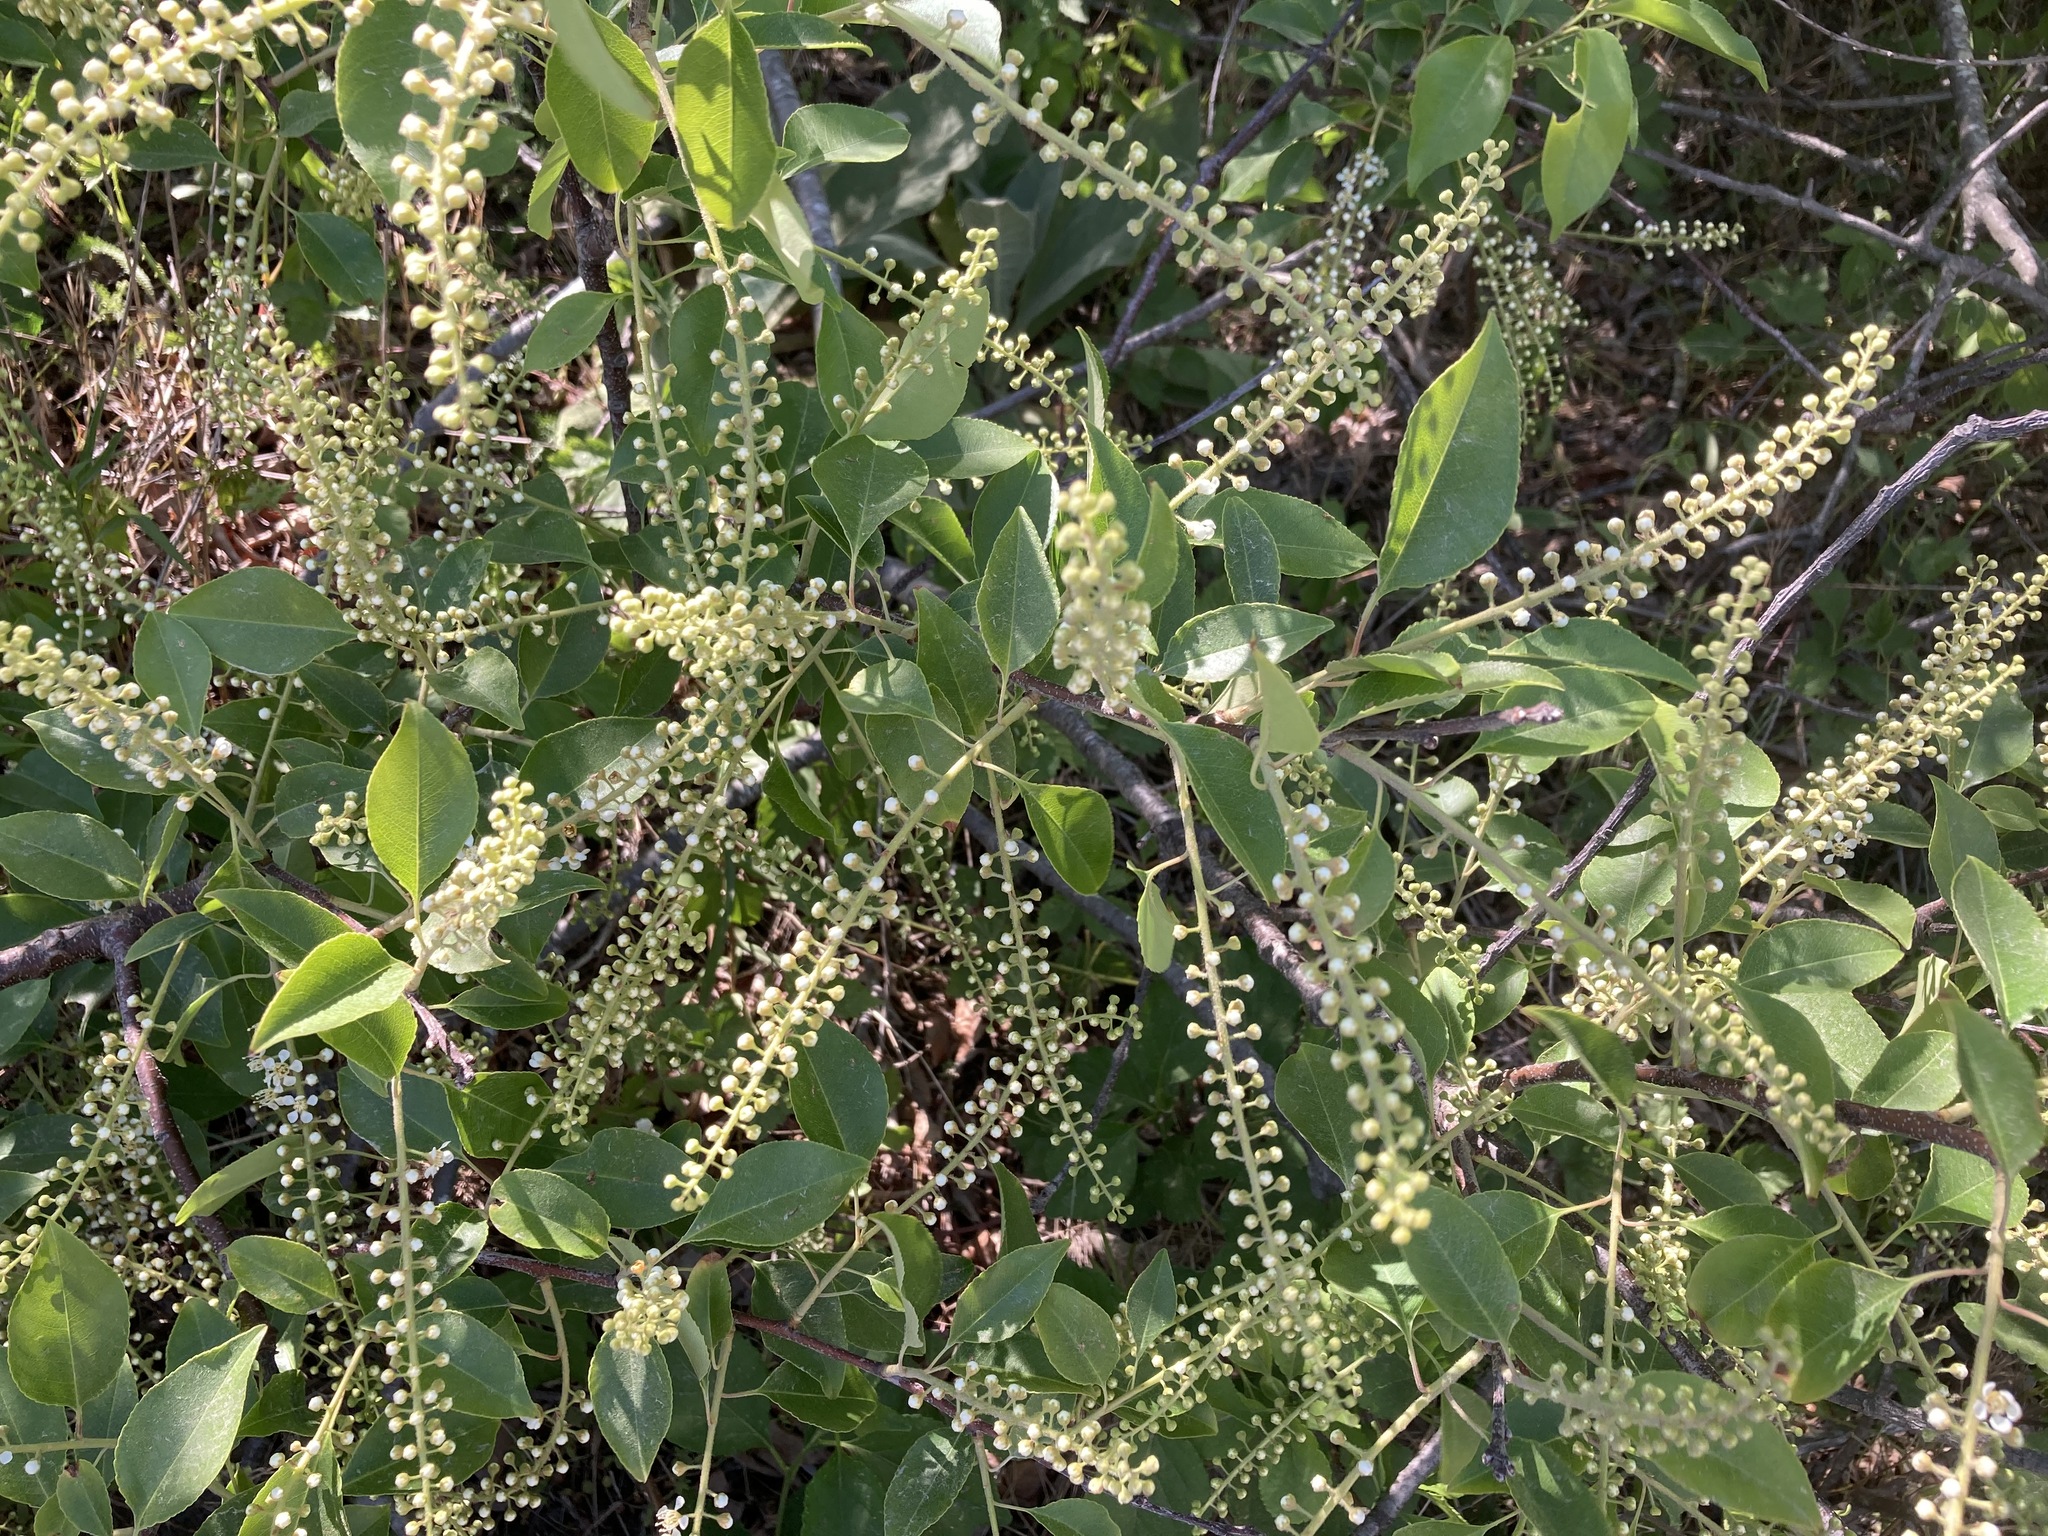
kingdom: Plantae
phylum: Tracheophyta
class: Magnoliopsida
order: Rosales
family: Rosaceae
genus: Prunus
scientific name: Prunus serotina
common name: Black cherry
